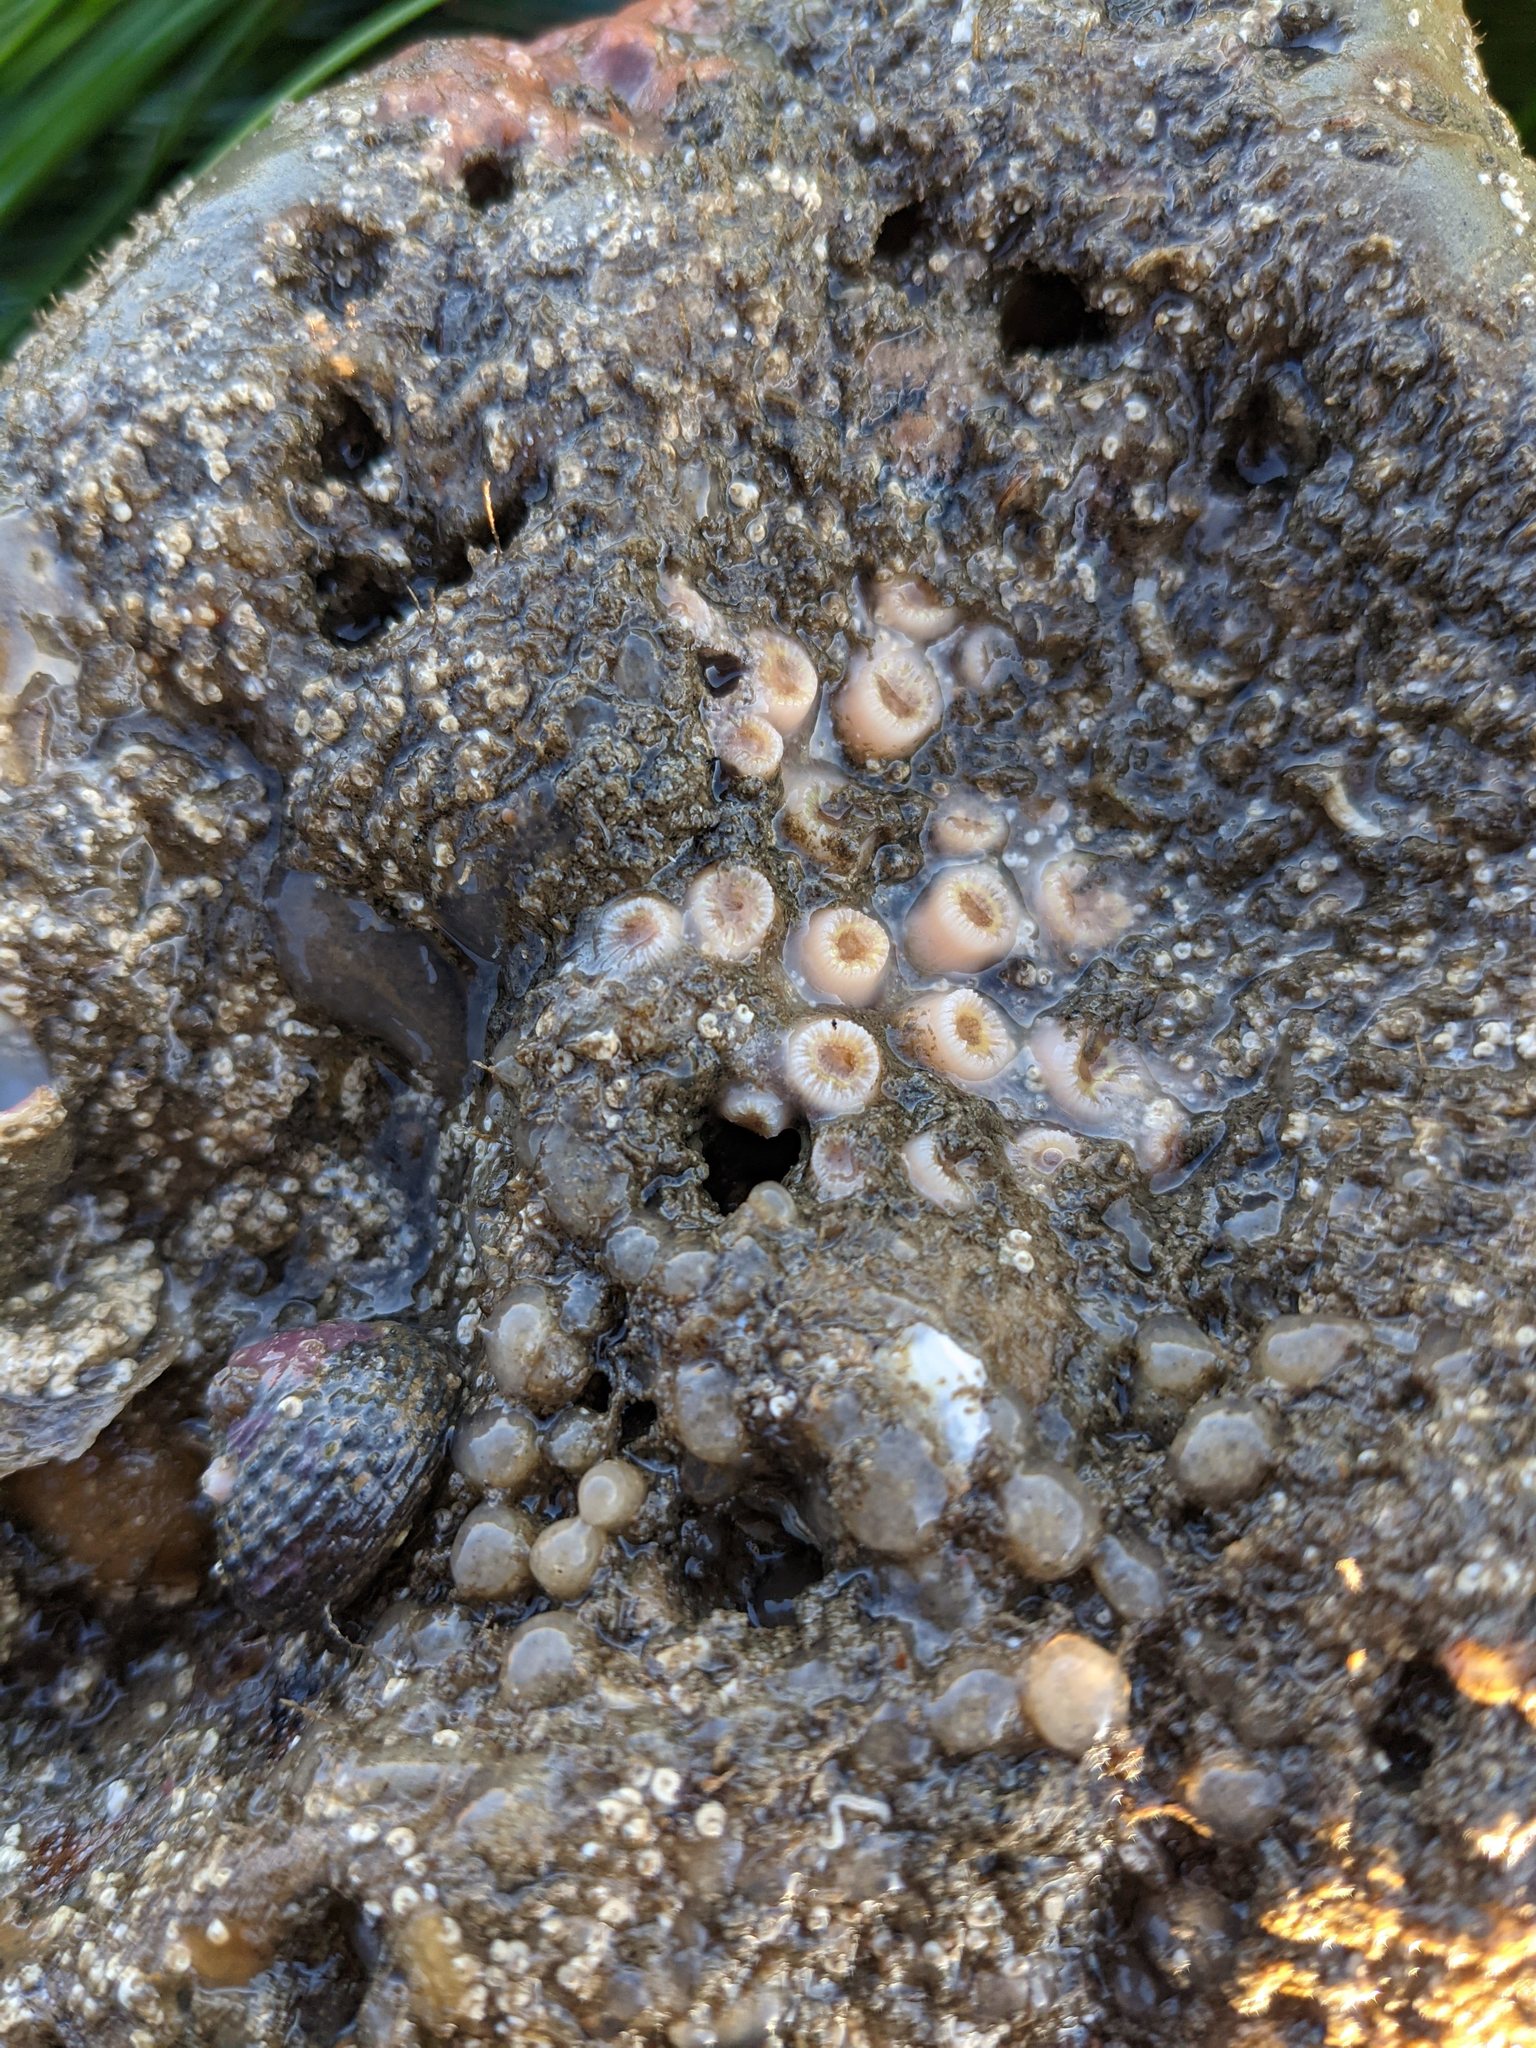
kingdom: Animalia
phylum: Cnidaria
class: Anthozoa
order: Scleractinia
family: Astrangiidae
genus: Astrangia
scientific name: Astrangia haimei
